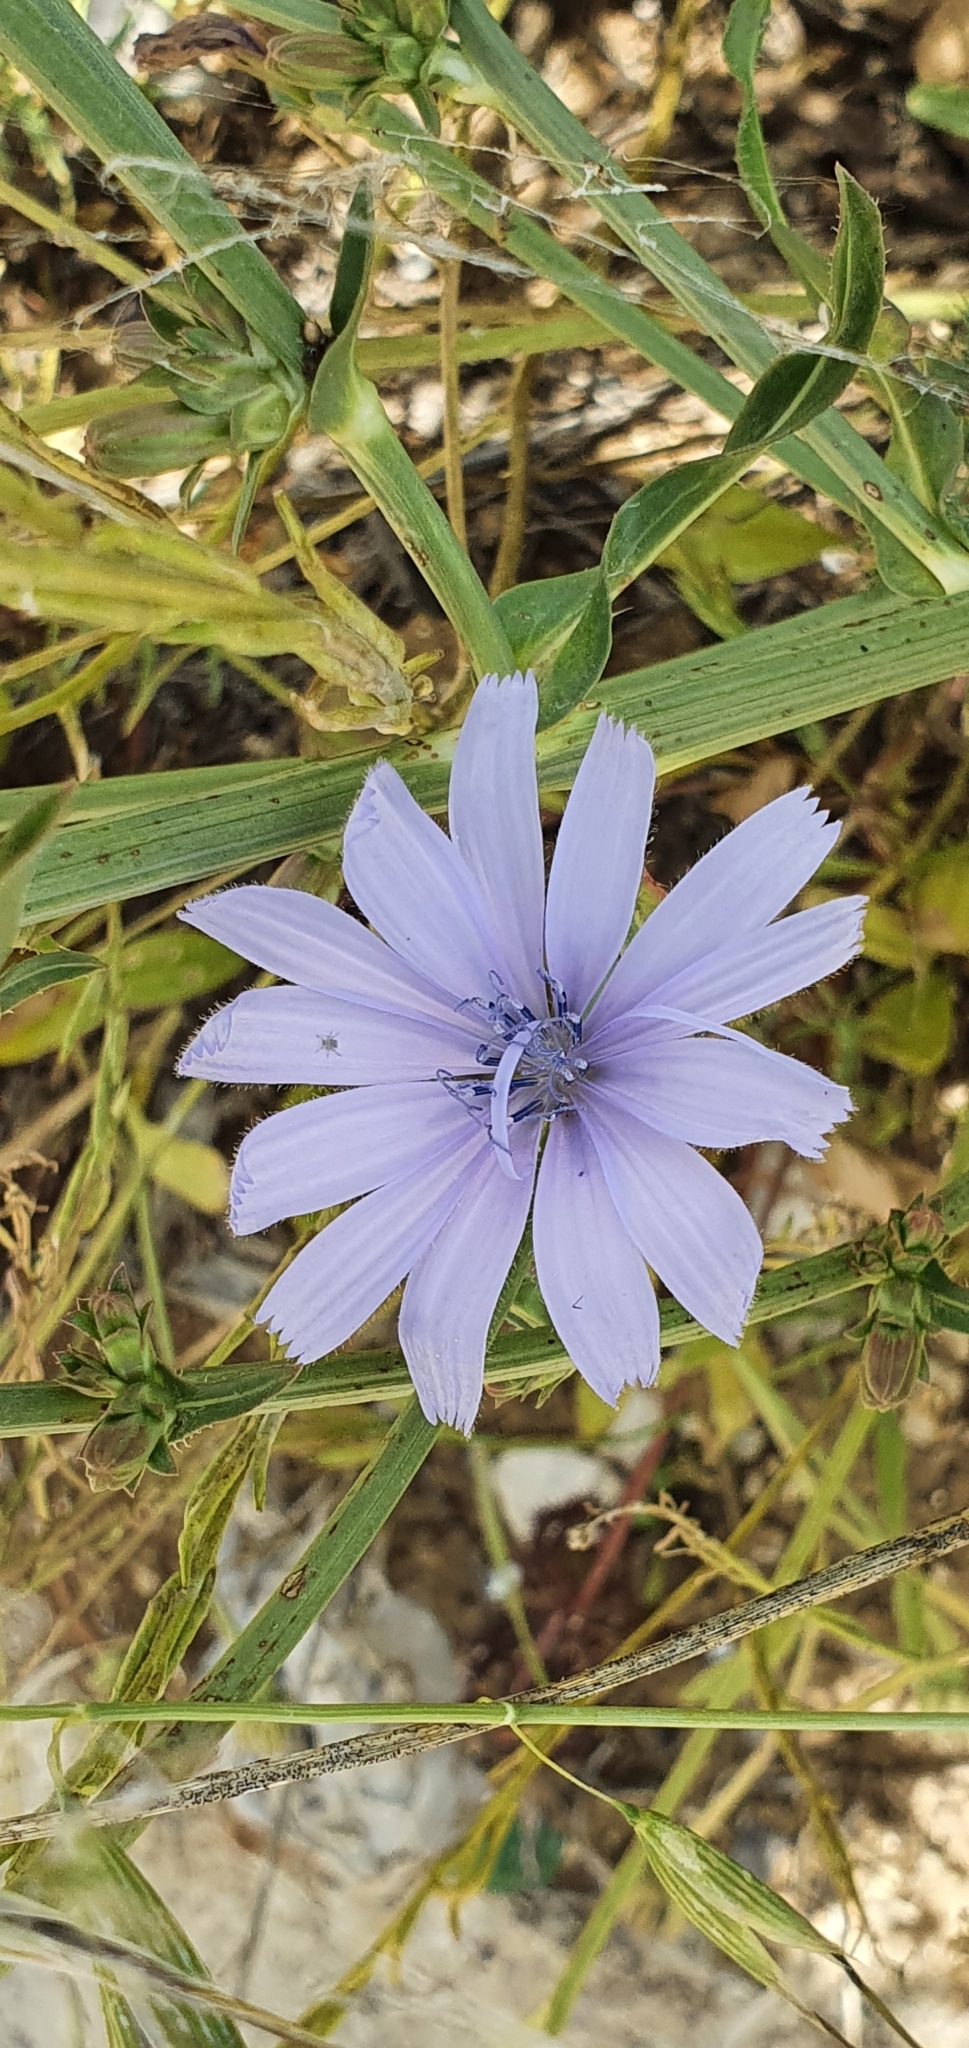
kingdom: Plantae
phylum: Tracheophyta
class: Magnoliopsida
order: Asterales
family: Asteraceae
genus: Cichorium
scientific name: Cichorium intybus
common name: Chicory
